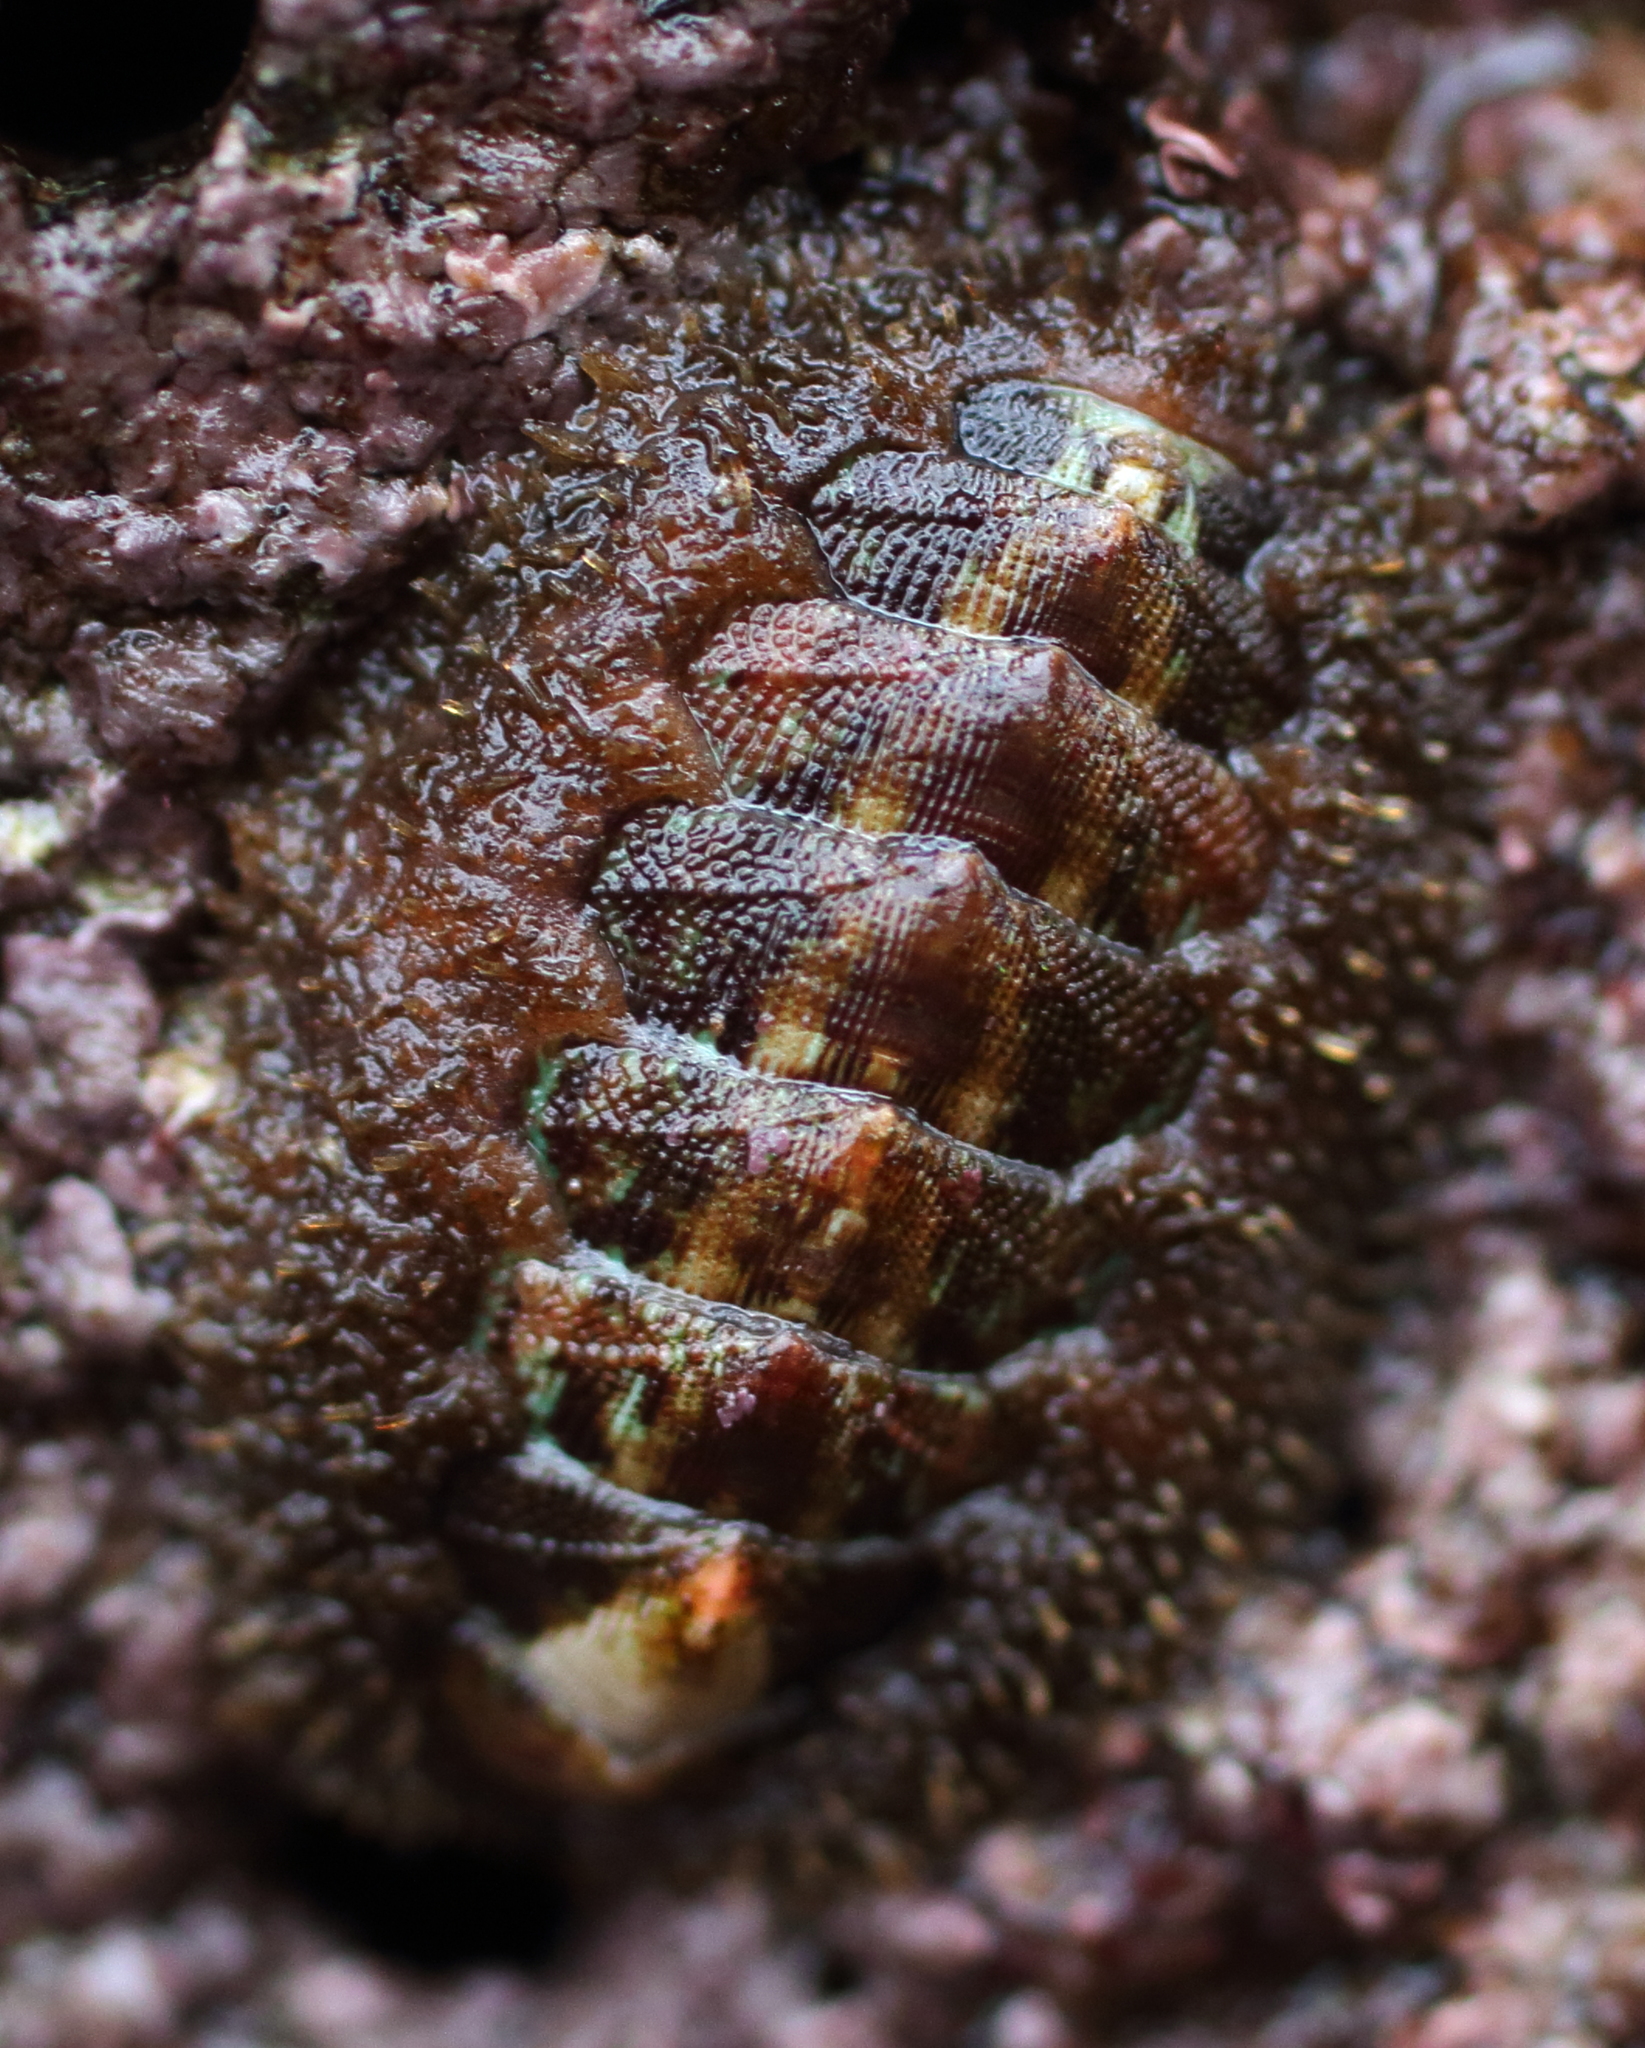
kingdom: Animalia
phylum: Mollusca
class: Polyplacophora
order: Chitonida
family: Mopaliidae
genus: Mopalia
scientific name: Mopalia ciliata
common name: Hairy chiton
